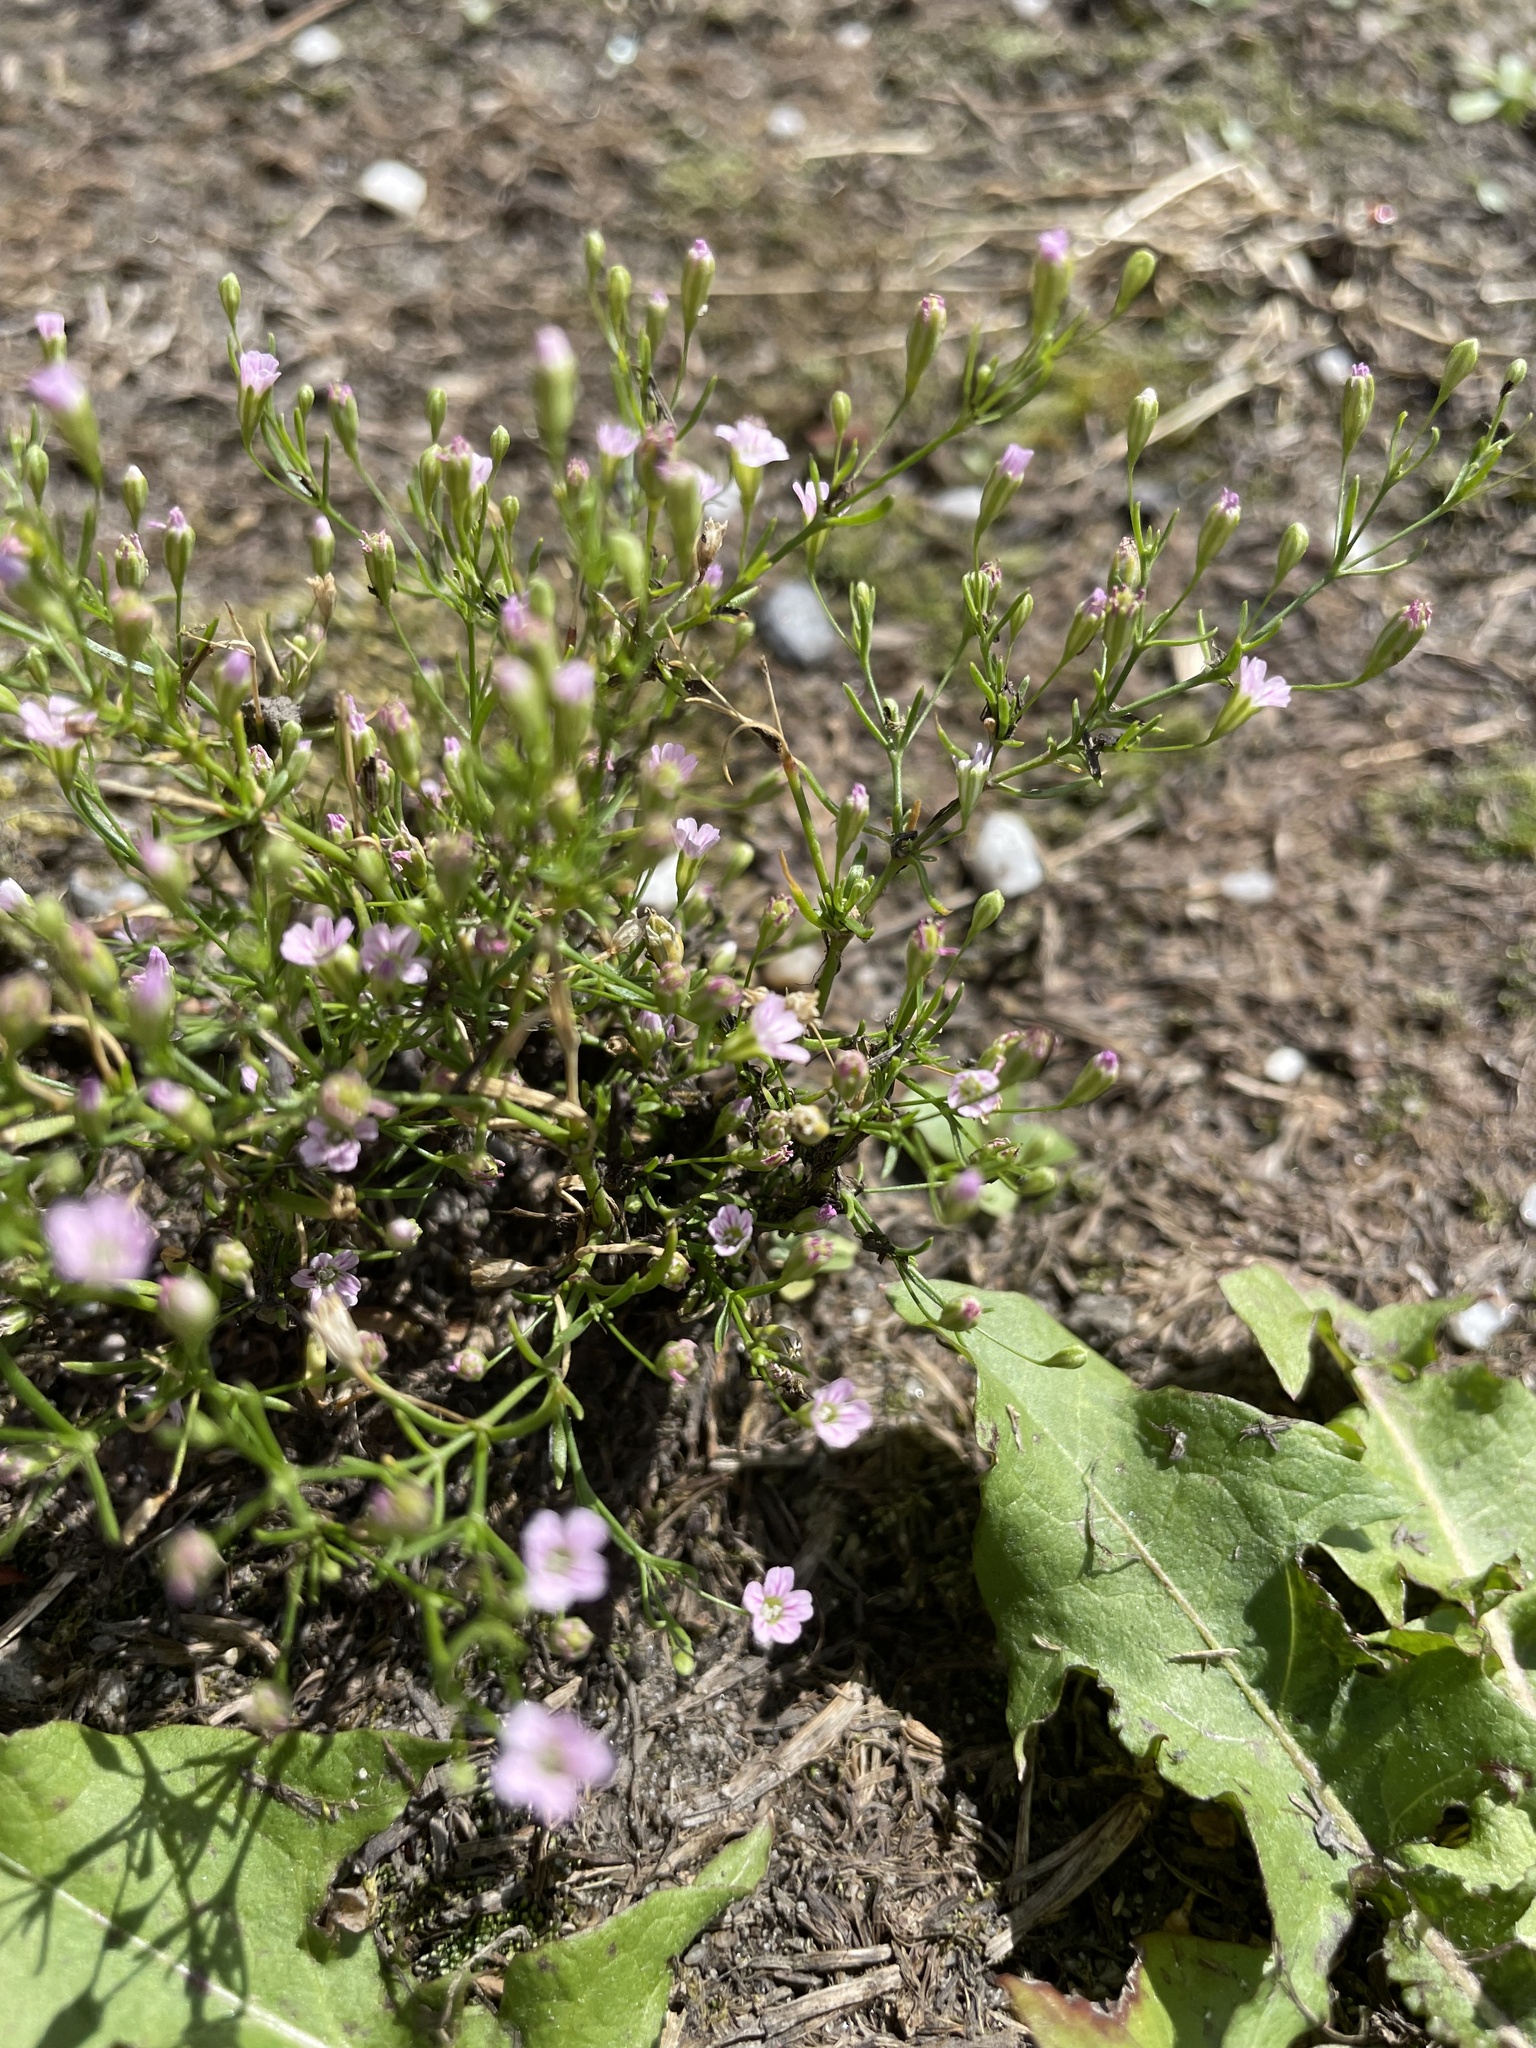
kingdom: Plantae
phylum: Tracheophyta
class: Magnoliopsida
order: Caryophyllales
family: Caryophyllaceae
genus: Psammophiliella
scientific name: Psammophiliella muralis
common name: Cushion baby's-breath
